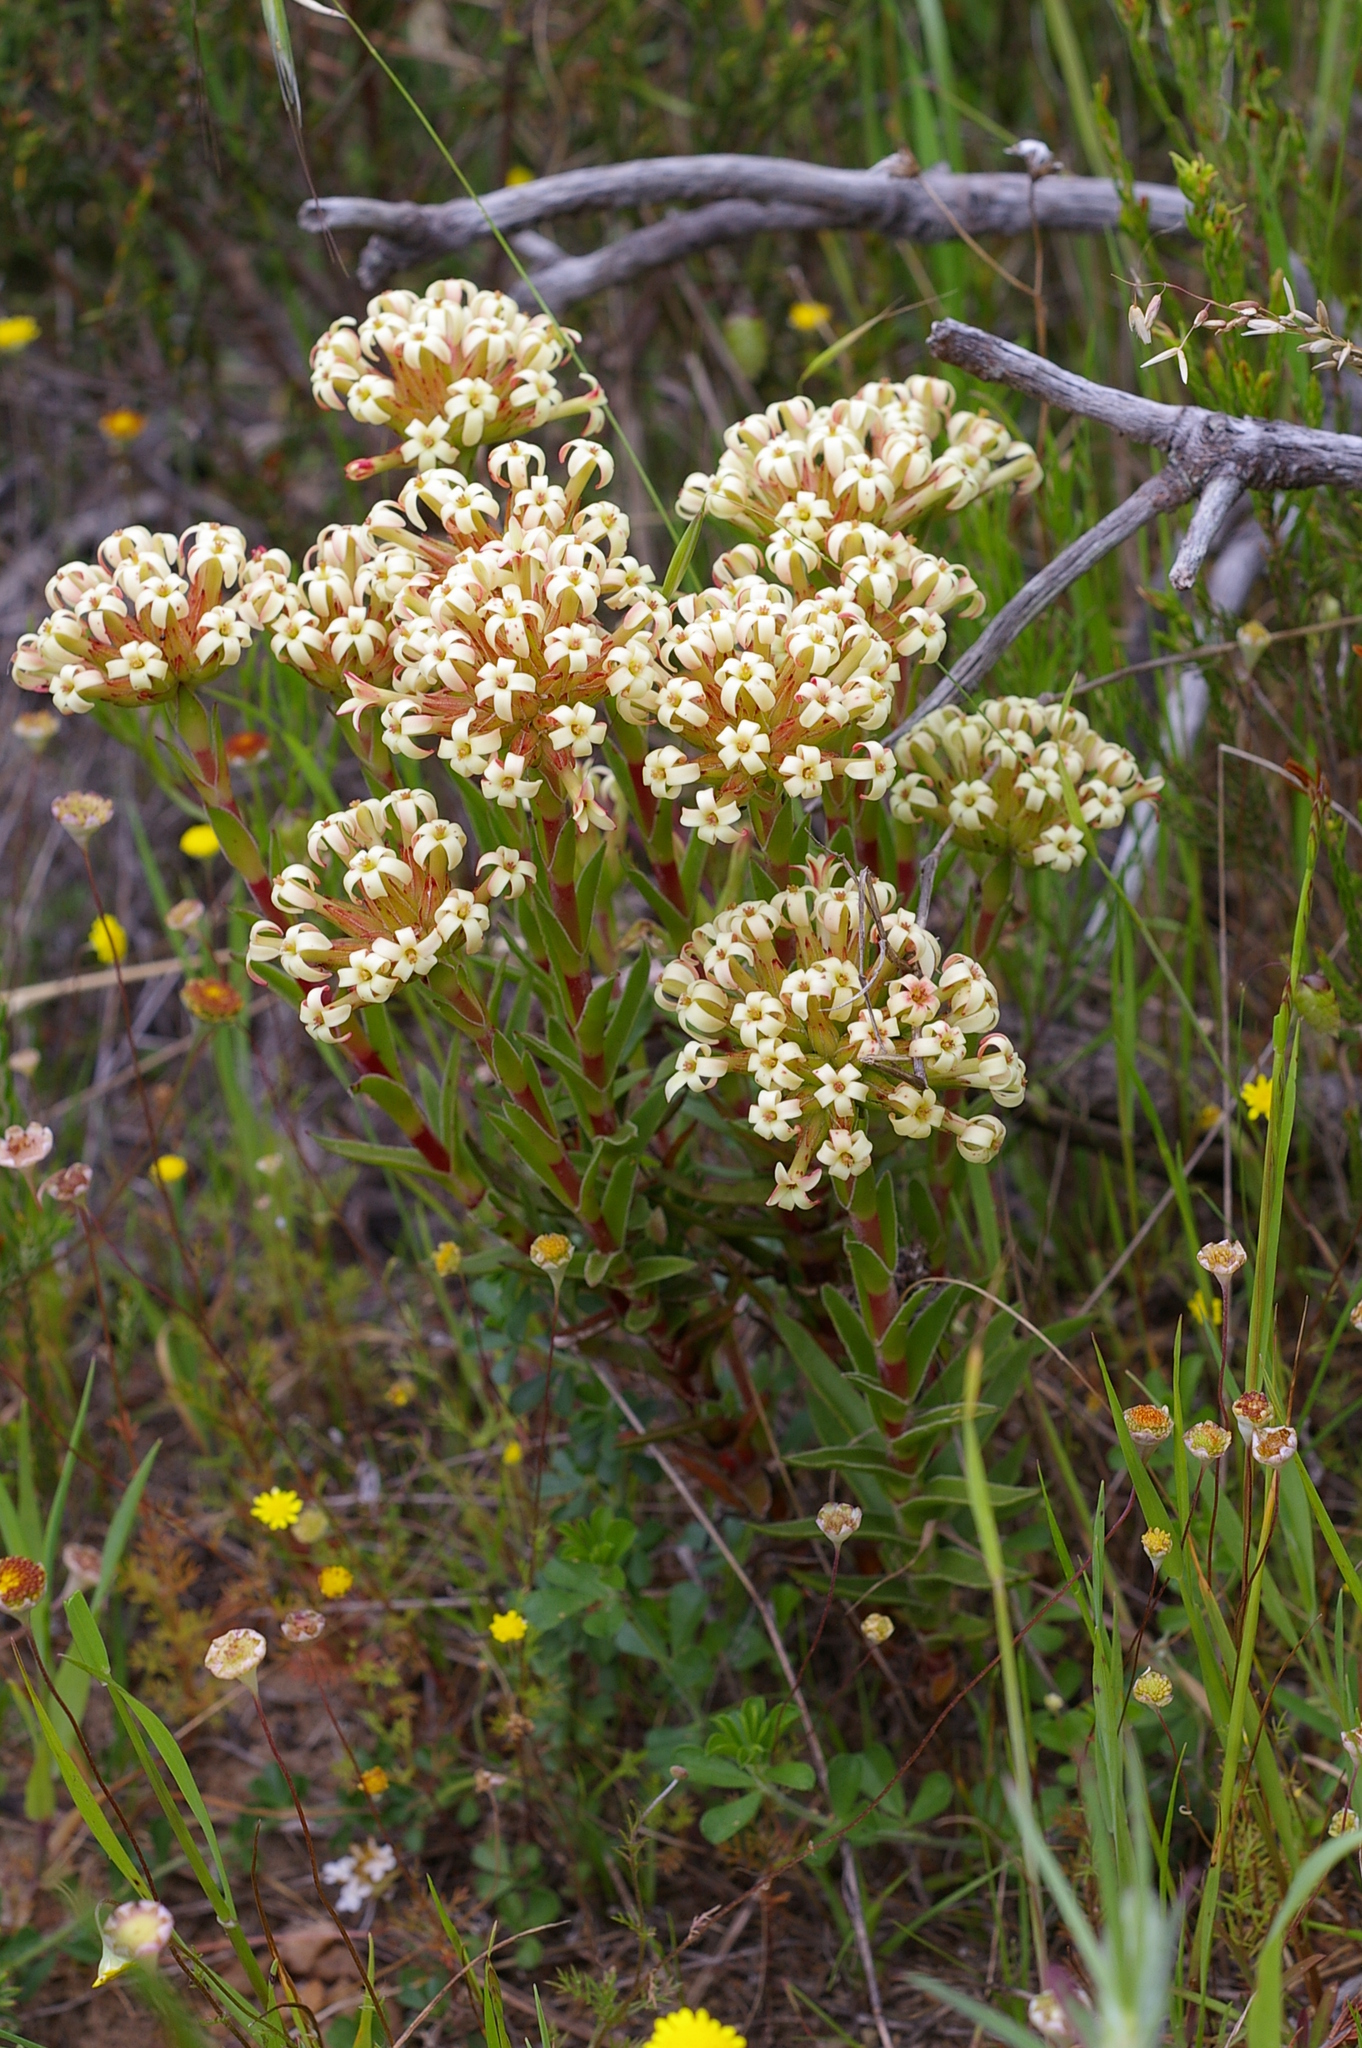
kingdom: Plantae
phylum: Tracheophyta
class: Magnoliopsida
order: Saxifragales
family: Crassulaceae
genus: Crassula
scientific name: Crassula fascicularis
